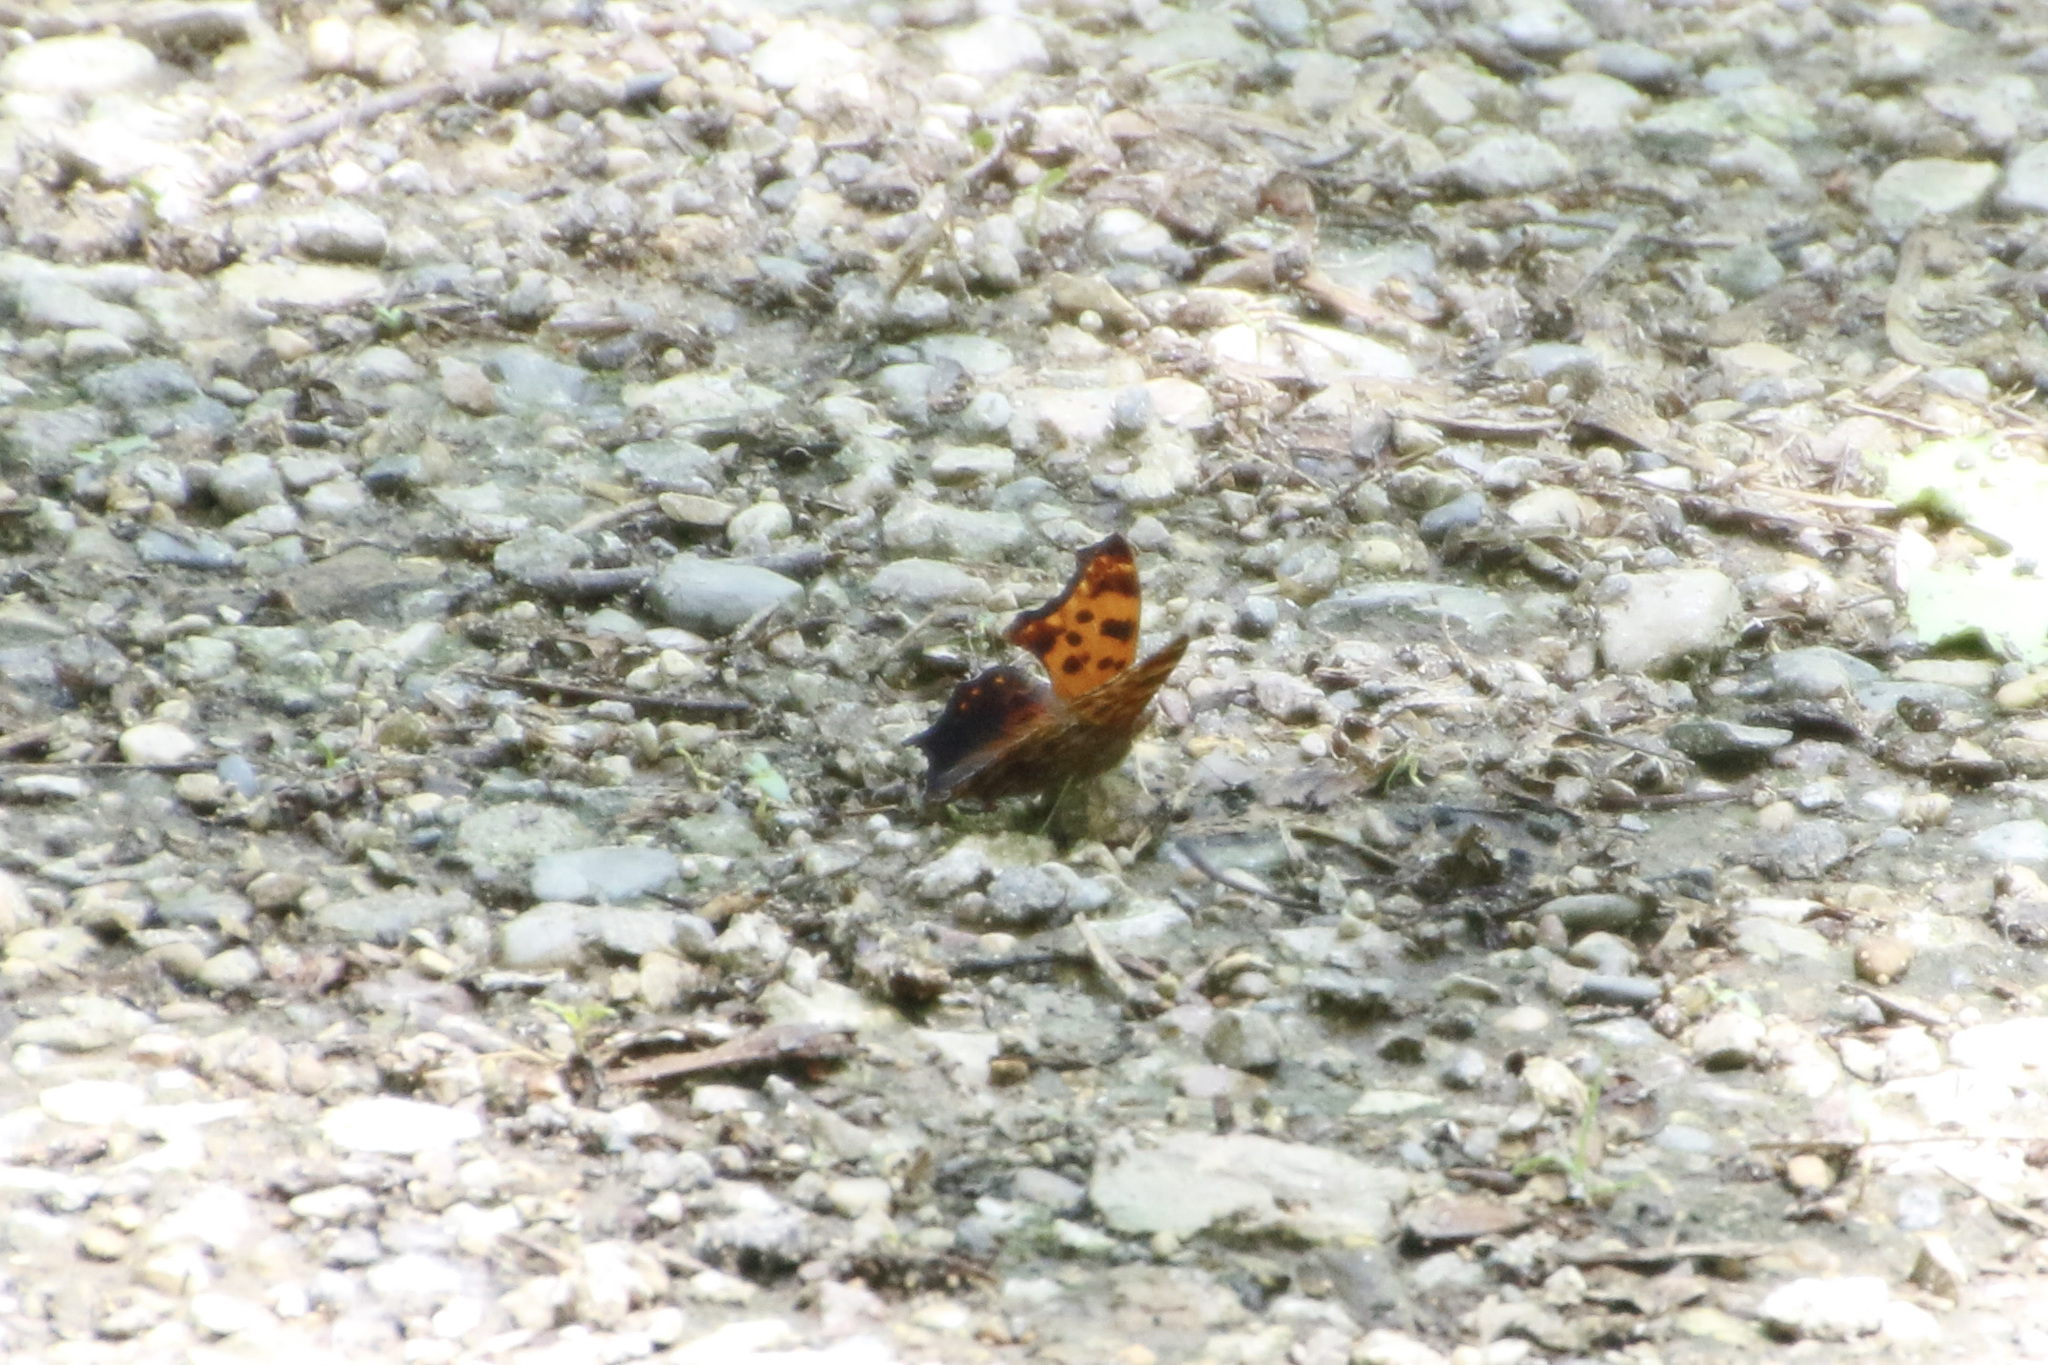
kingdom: Animalia
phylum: Arthropoda
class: Insecta
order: Lepidoptera
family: Nymphalidae
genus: Polygonia
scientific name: Polygonia comma
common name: Eastern comma
